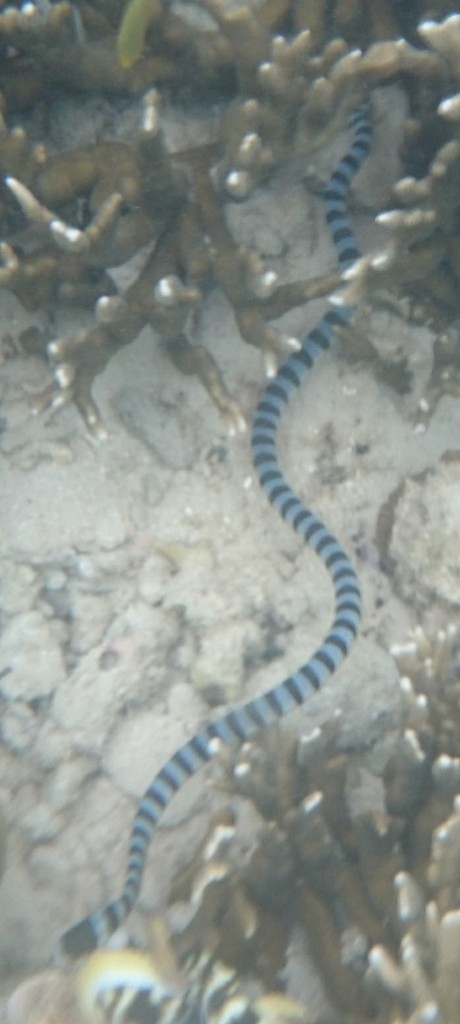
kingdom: Animalia
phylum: Chordata
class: Squamata
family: Elapidae
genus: Laticauda
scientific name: Laticauda colubrina
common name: Yellow-lipped sea krait
